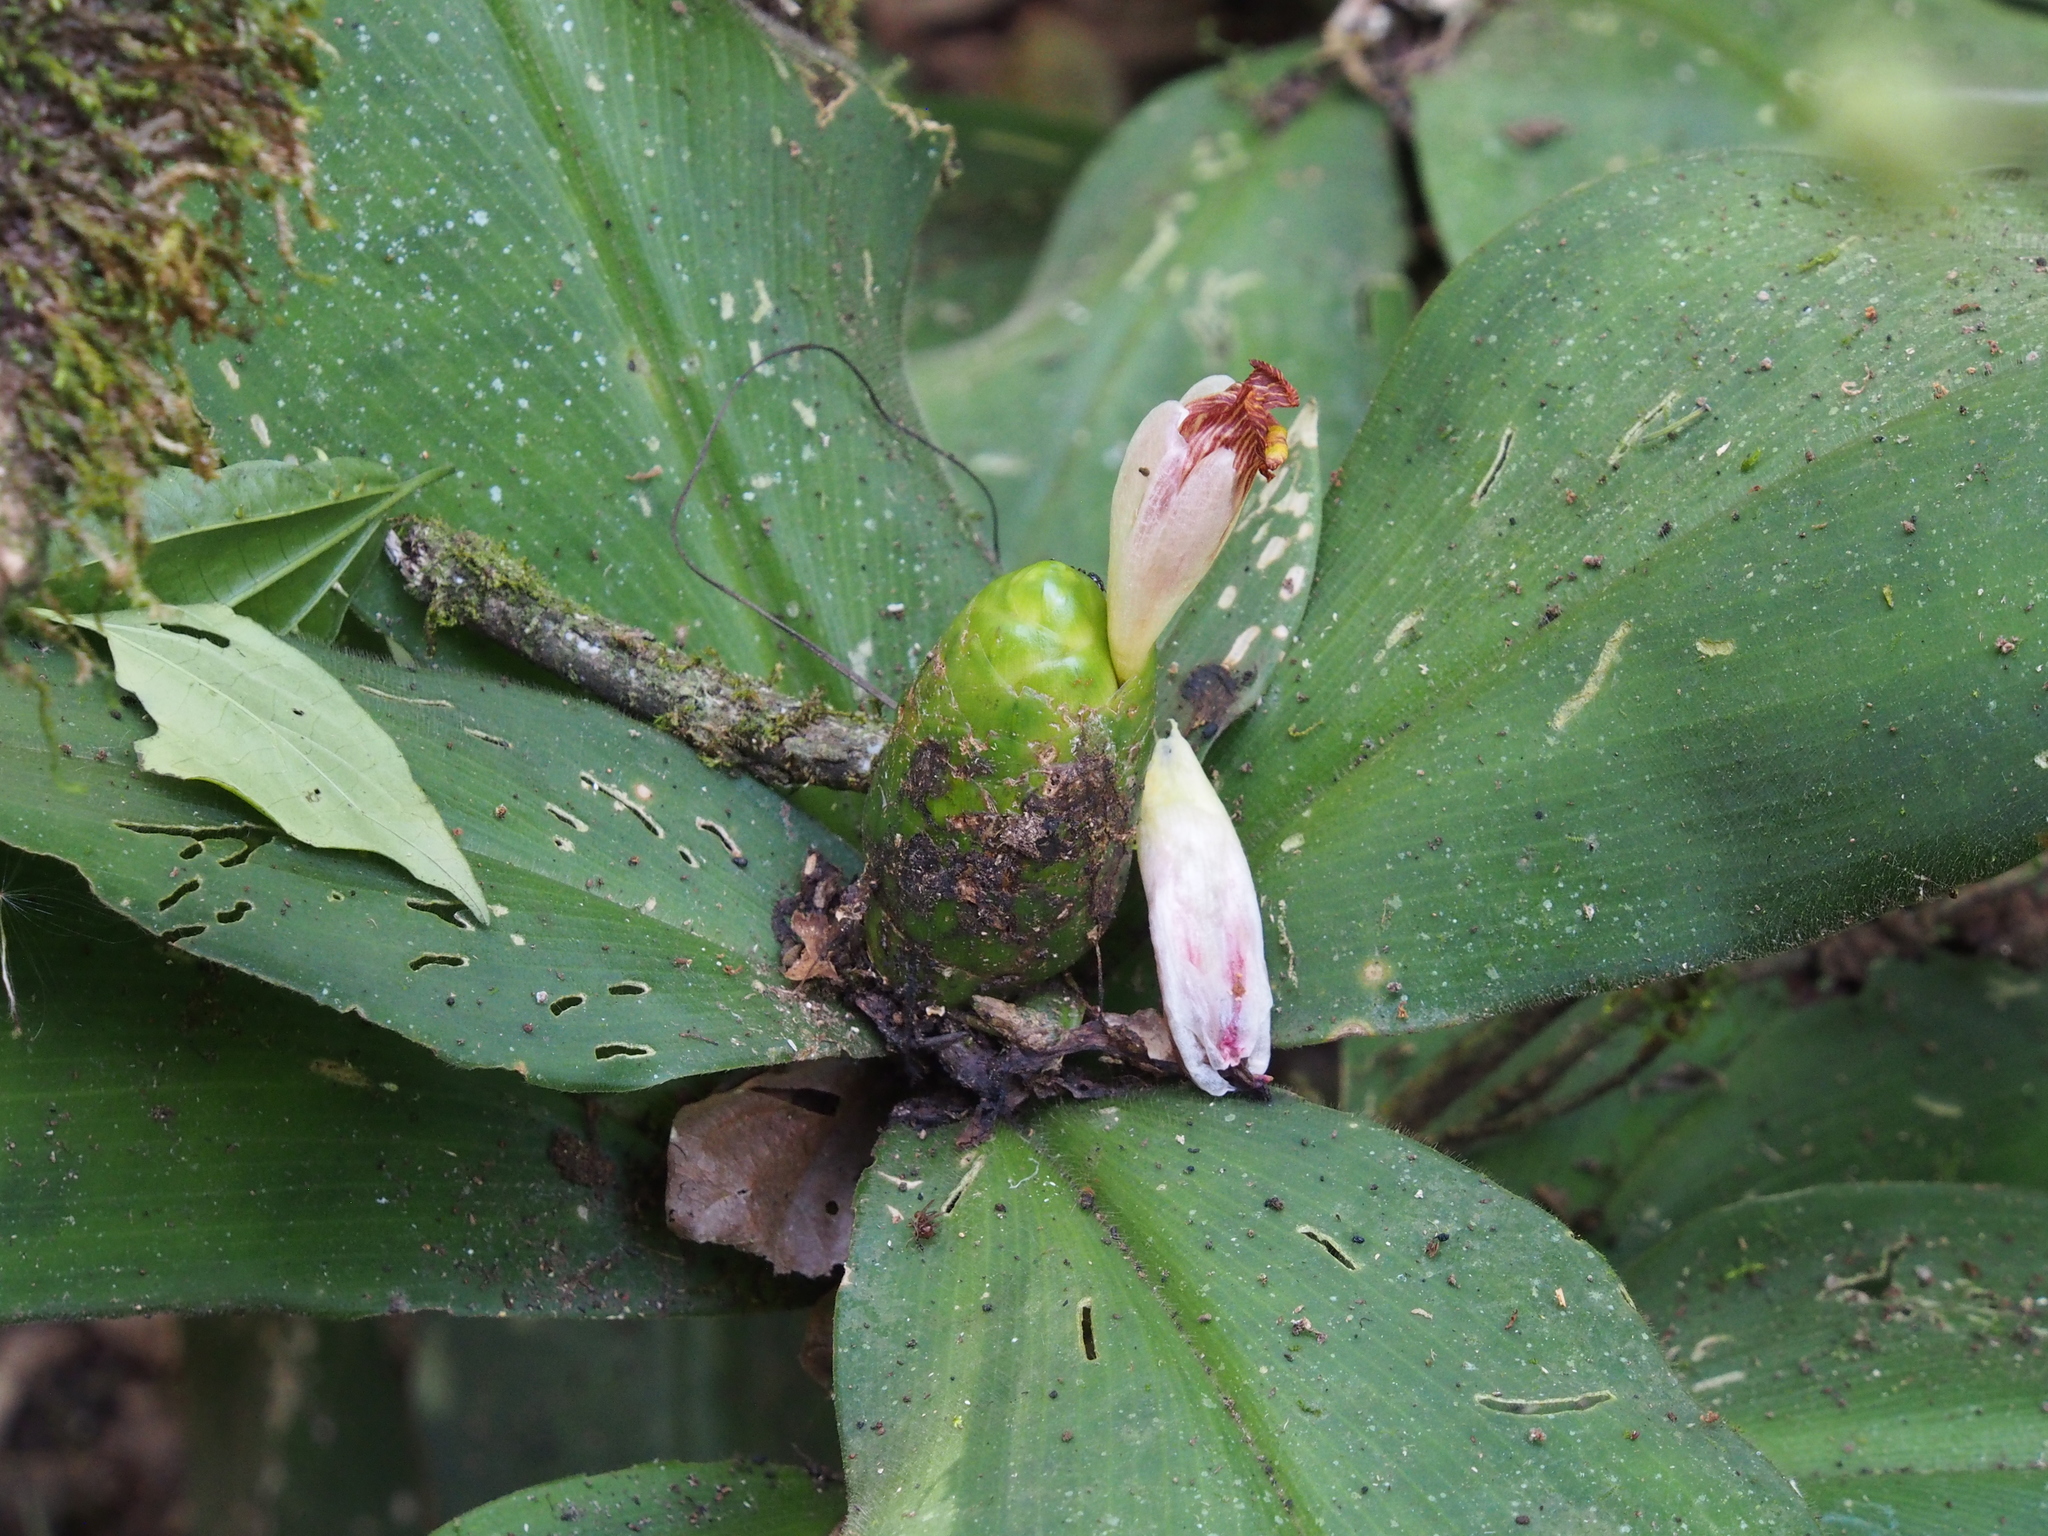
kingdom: Plantae
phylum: Tracheophyta
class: Liliopsida
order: Zingiberales
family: Costaceae
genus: Costus
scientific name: Costus elegans
